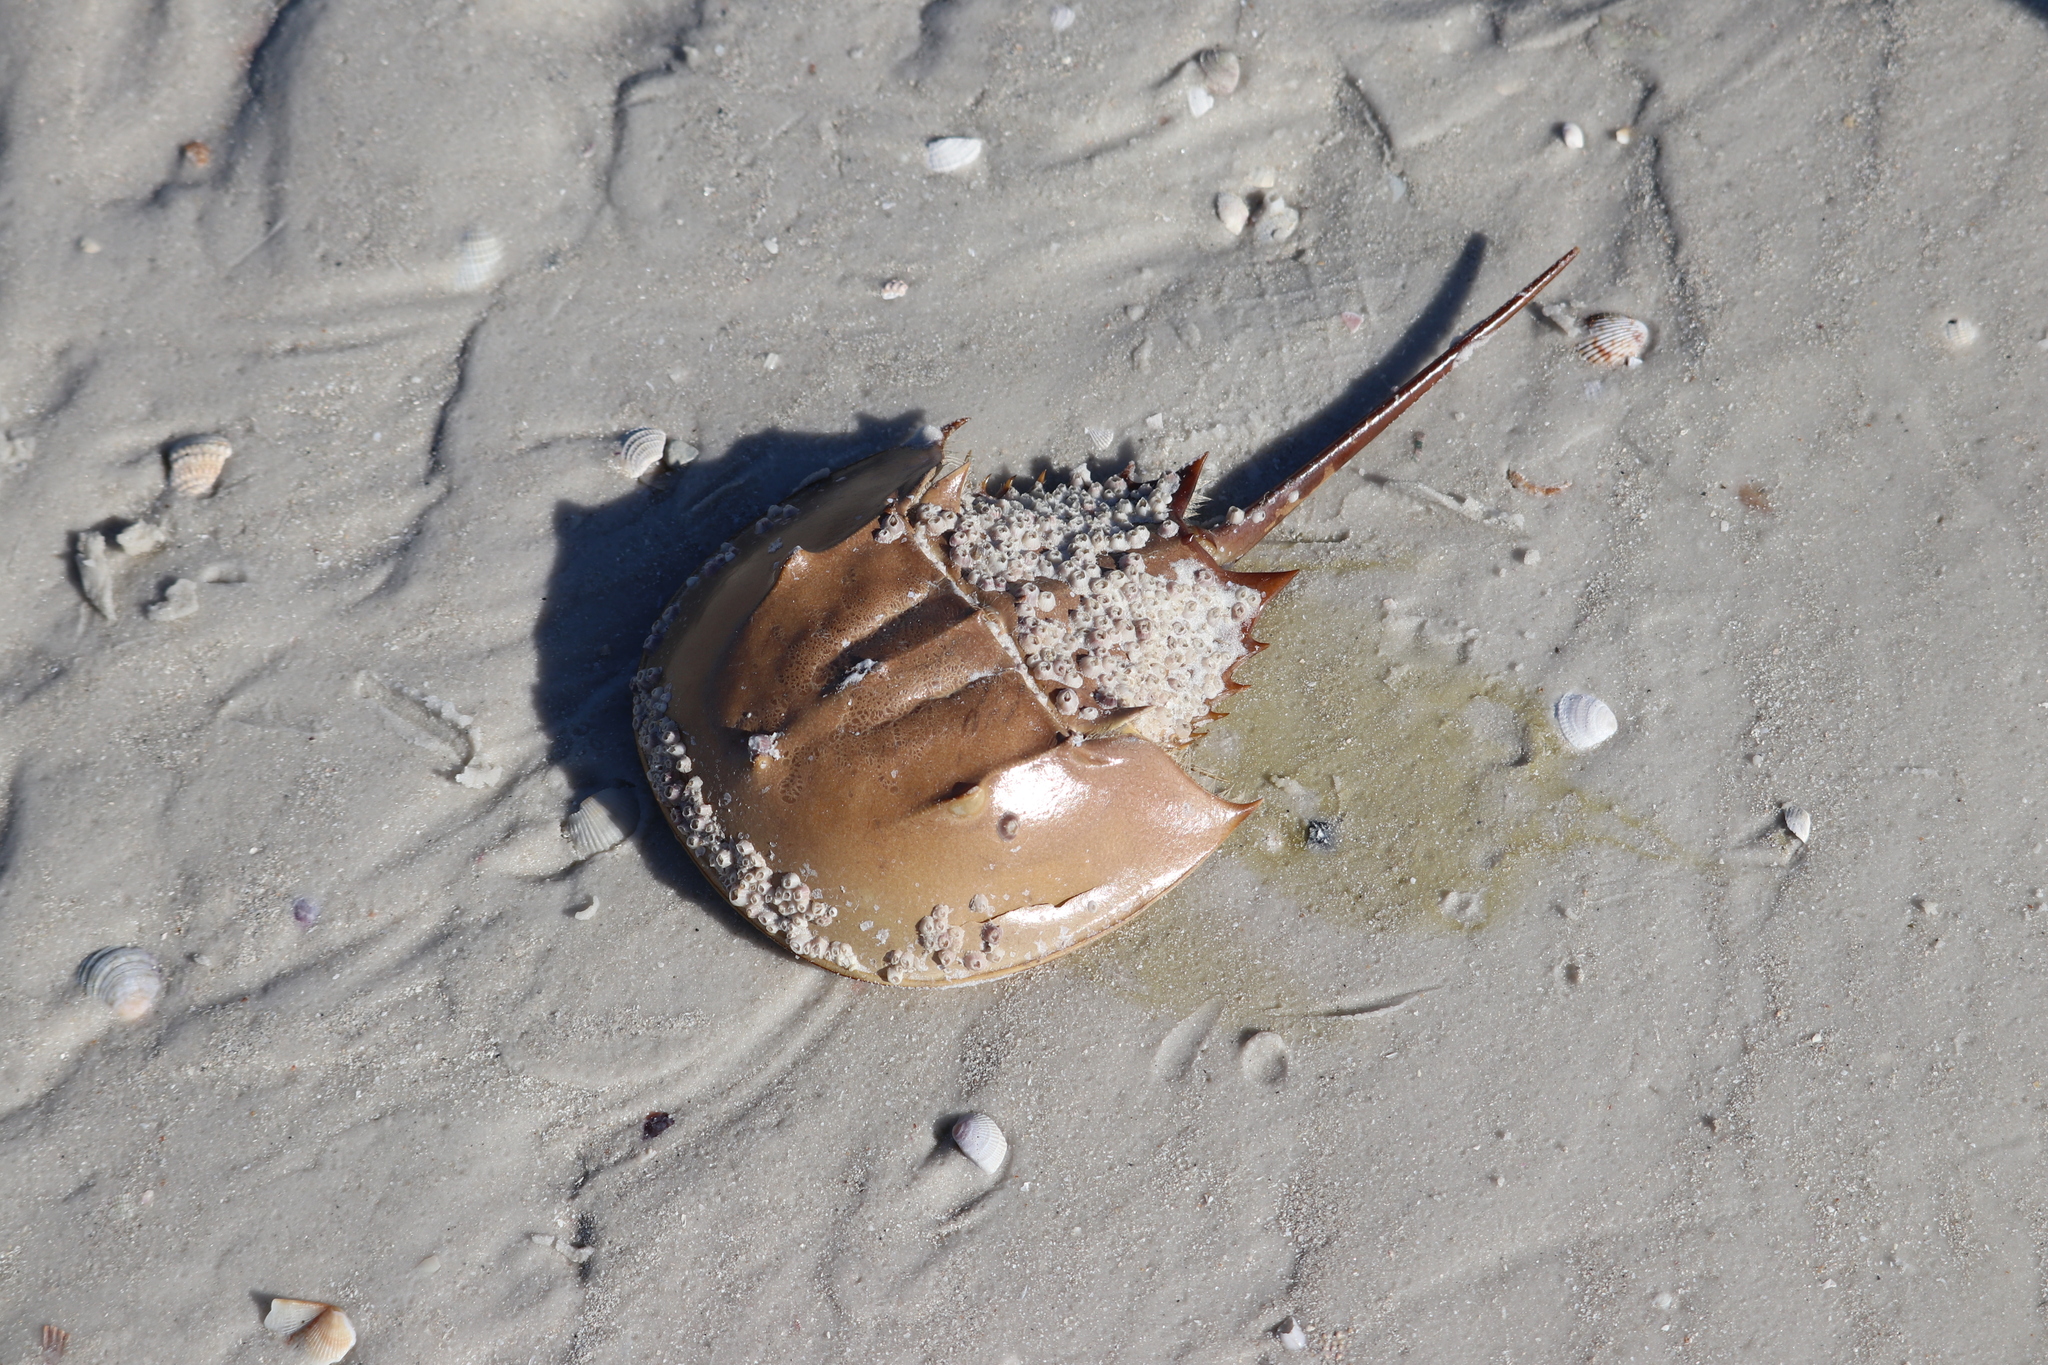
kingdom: Animalia
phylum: Arthropoda
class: Merostomata
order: Xiphosurida
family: Limulidae
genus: Limulus
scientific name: Limulus polyphemus
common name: Horseshoe crab
